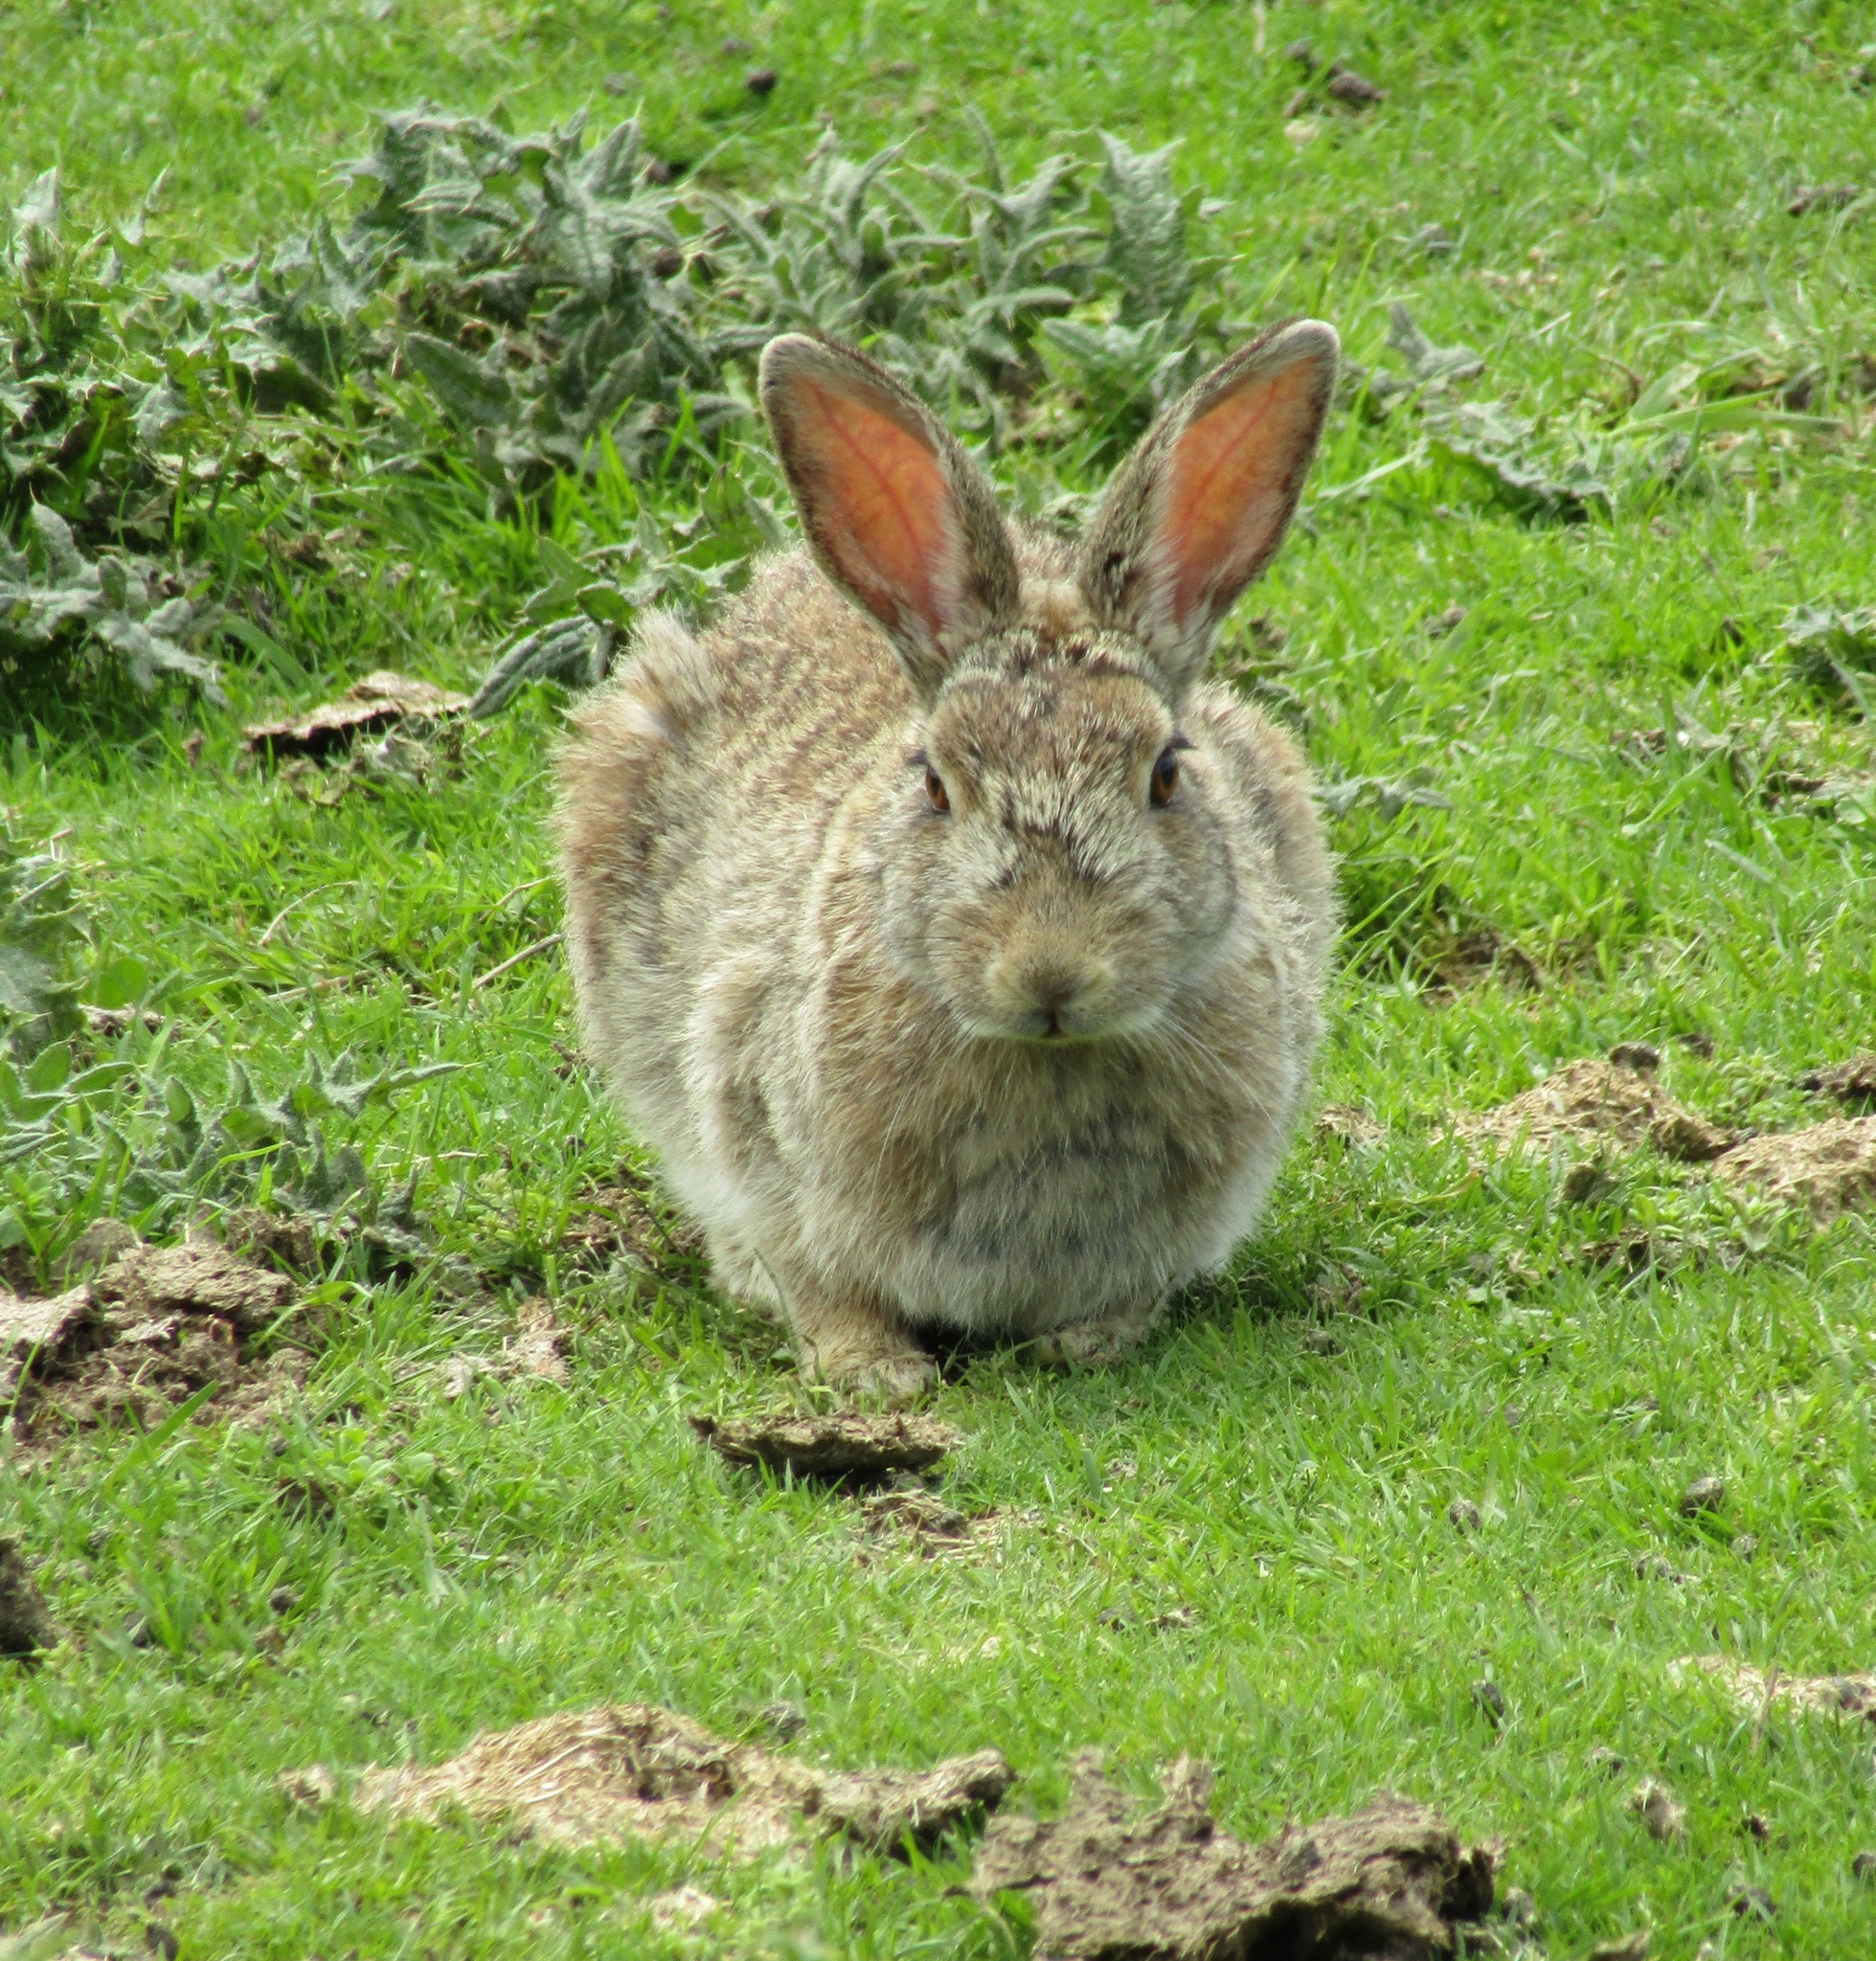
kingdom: Animalia
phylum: Chordata
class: Mammalia
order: Lagomorpha
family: Leporidae
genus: Oryctolagus
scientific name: Oryctolagus cuniculus
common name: European rabbit
